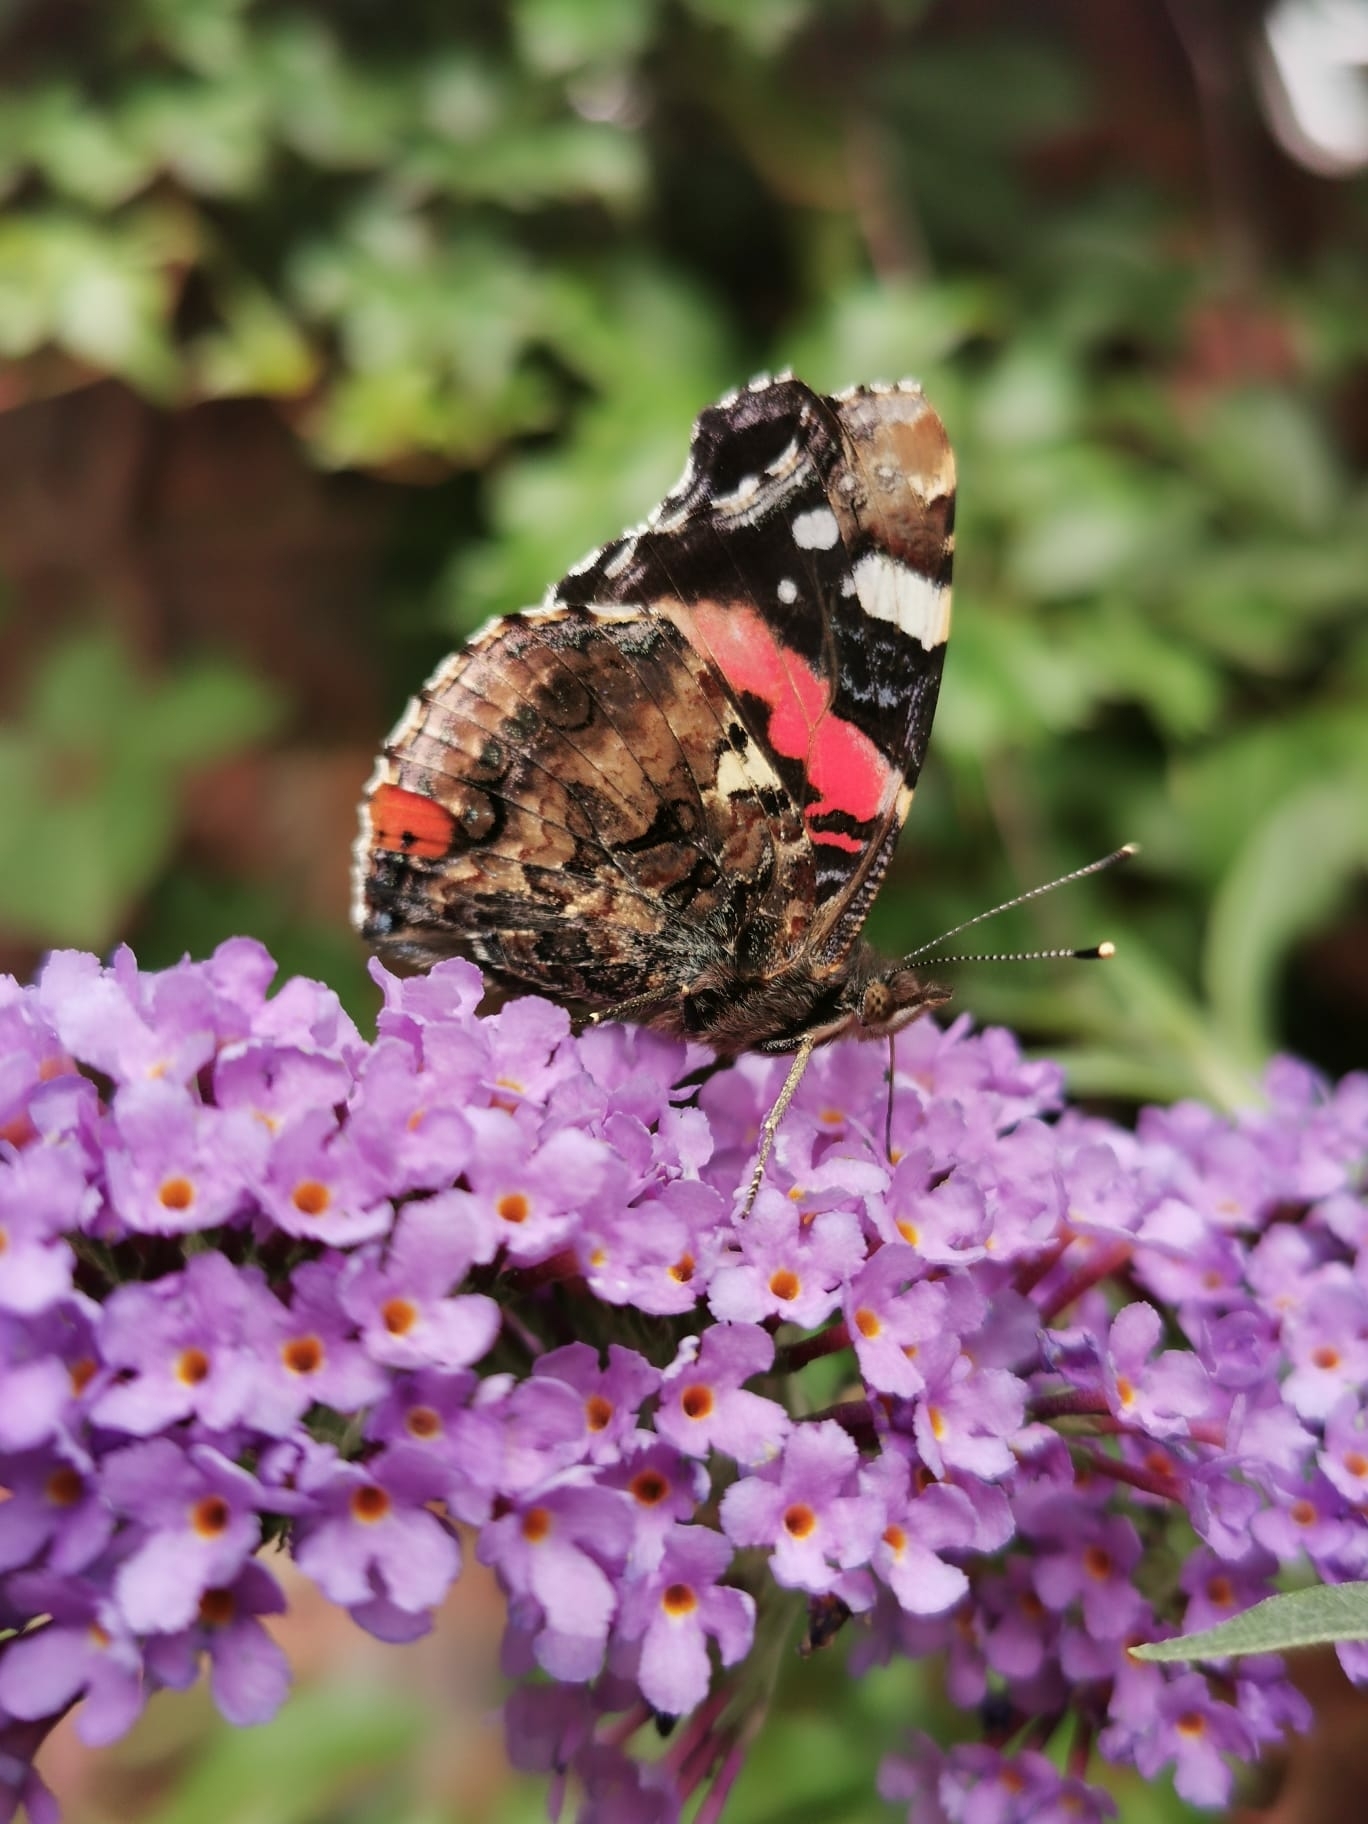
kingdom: Animalia
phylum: Arthropoda
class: Insecta
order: Lepidoptera
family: Nymphalidae
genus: Vanessa
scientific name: Vanessa atalanta
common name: Red admiral
